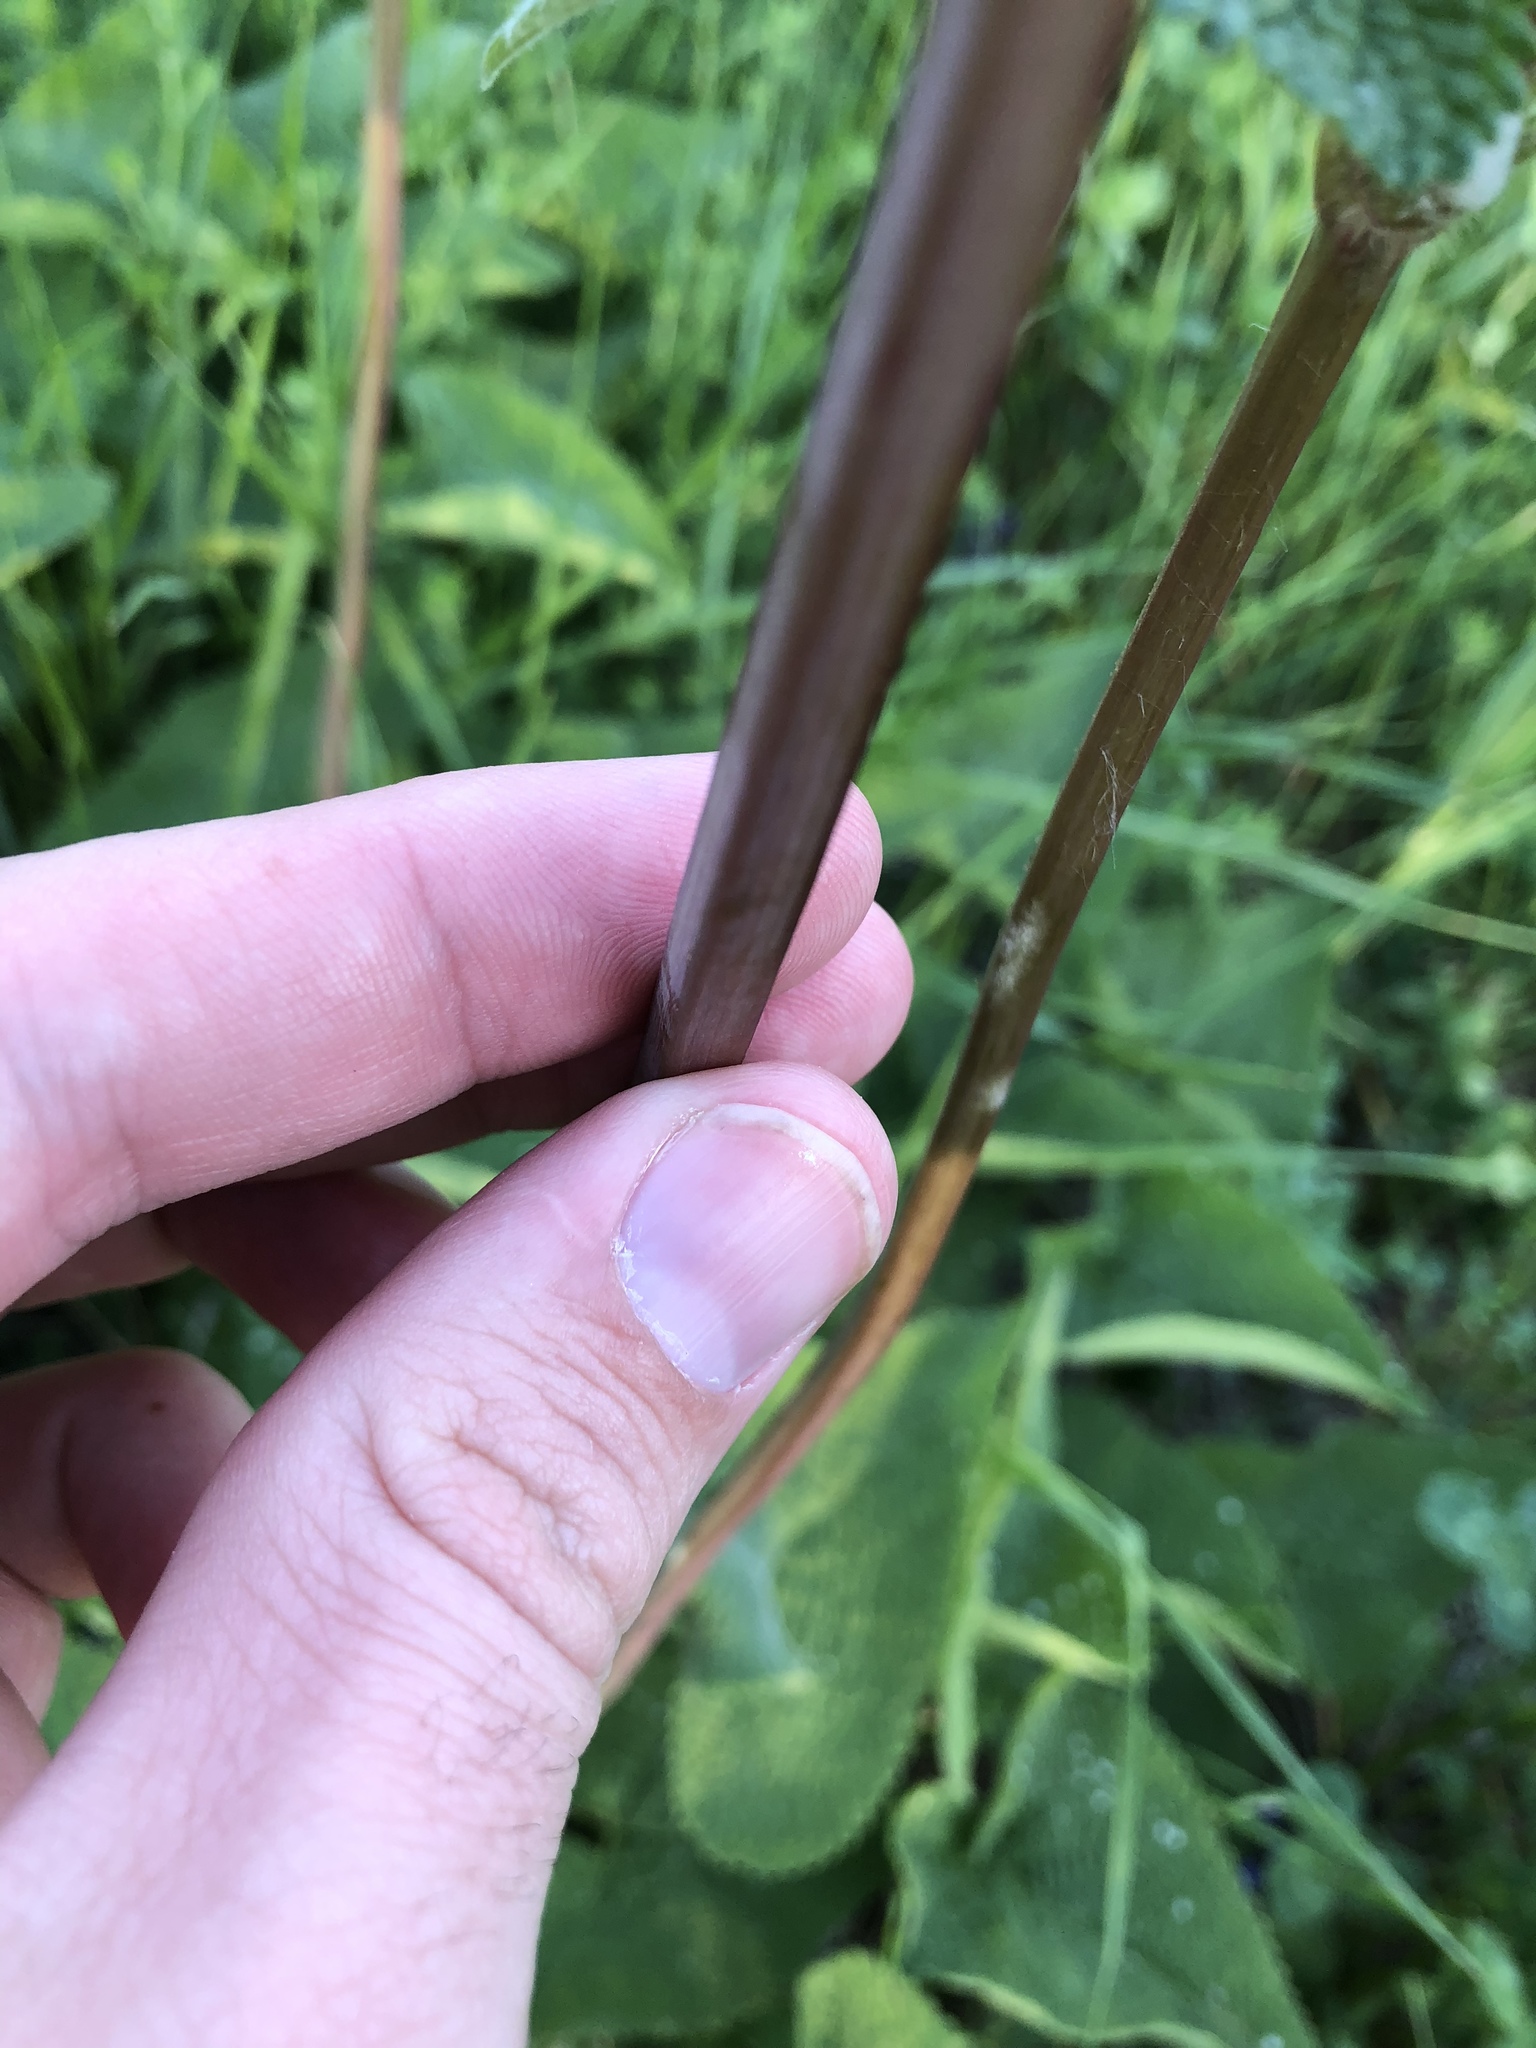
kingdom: Plantae
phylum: Tracheophyta
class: Magnoliopsida
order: Lamiales
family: Lamiaceae
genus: Phlomoides
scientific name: Phlomoides tuberosa
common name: Tuberous jerusalem sage
